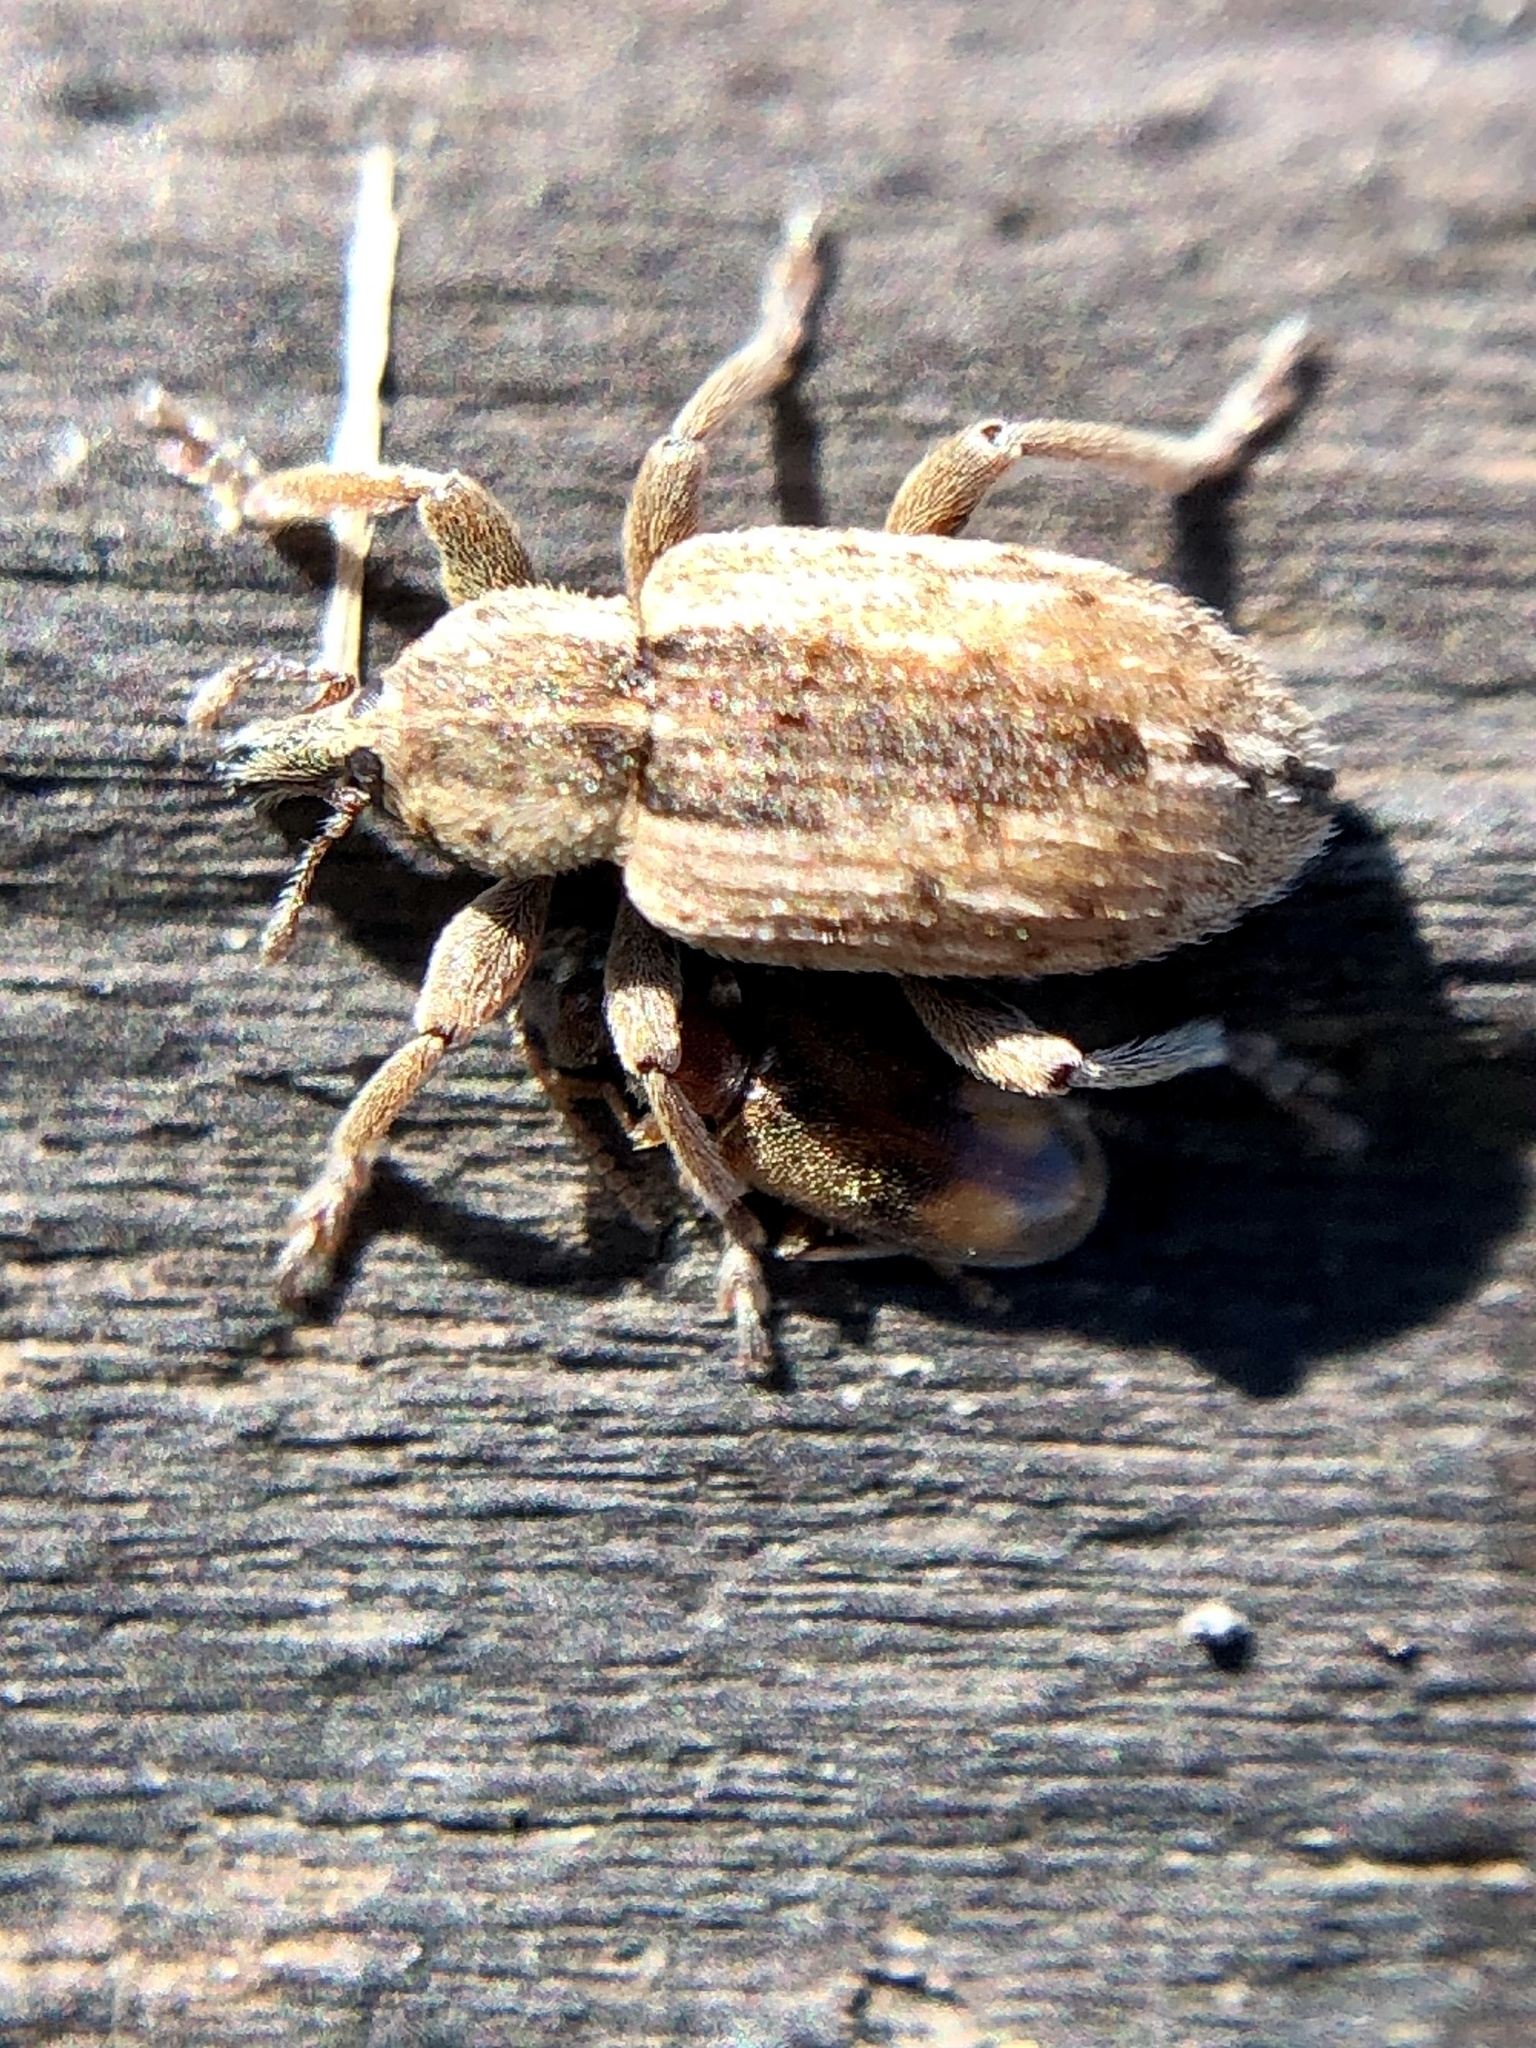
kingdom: Animalia
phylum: Arthropoda
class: Insecta
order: Coleoptera
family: Curculionidae
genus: Hypera
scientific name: Hypera postica
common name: Weevil
